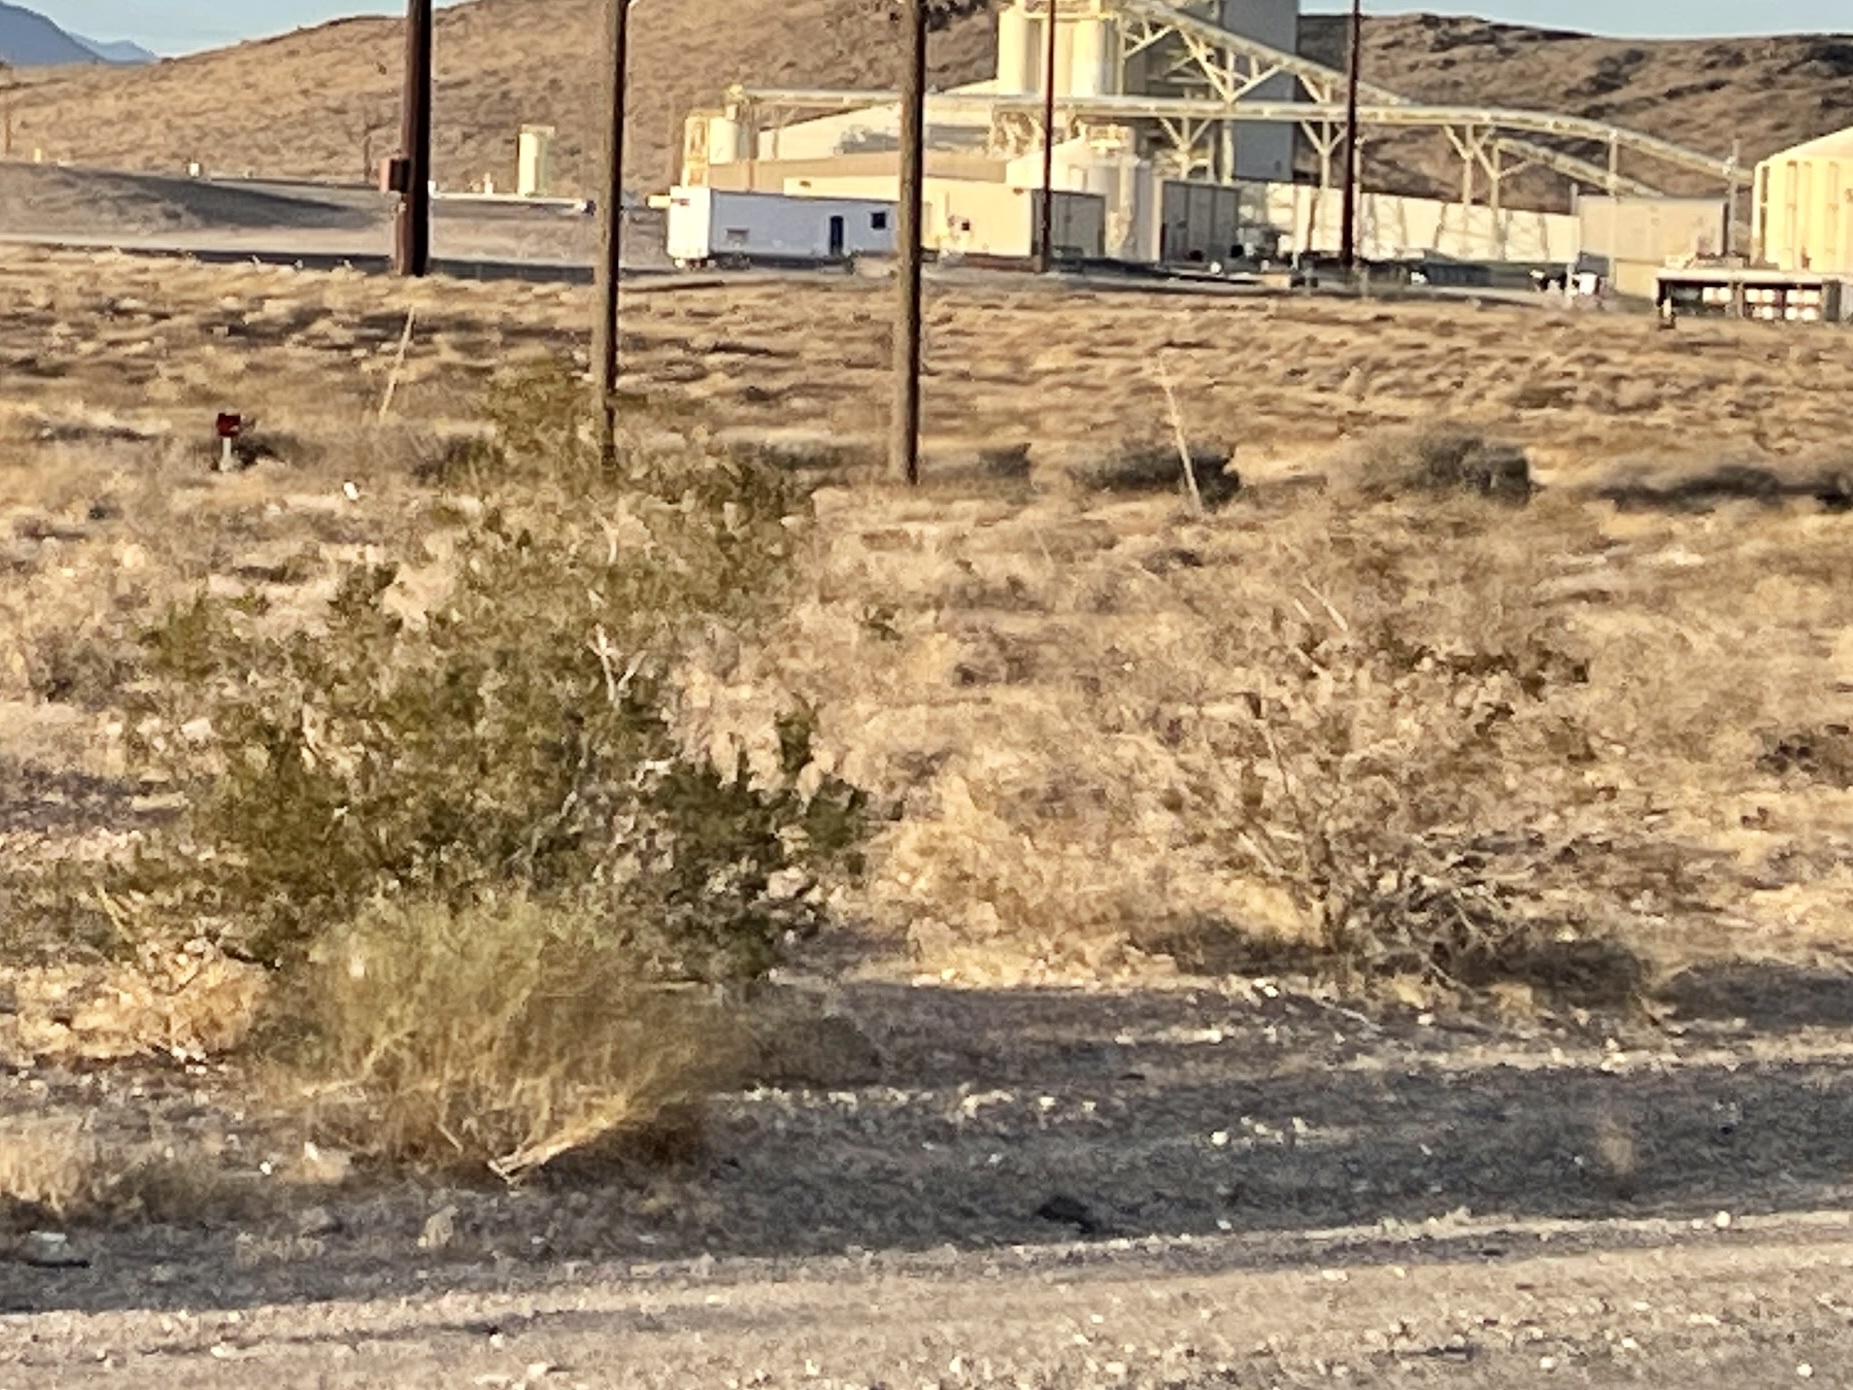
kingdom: Plantae
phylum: Tracheophyta
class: Magnoliopsida
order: Zygophyllales
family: Zygophyllaceae
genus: Larrea
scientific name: Larrea tridentata
